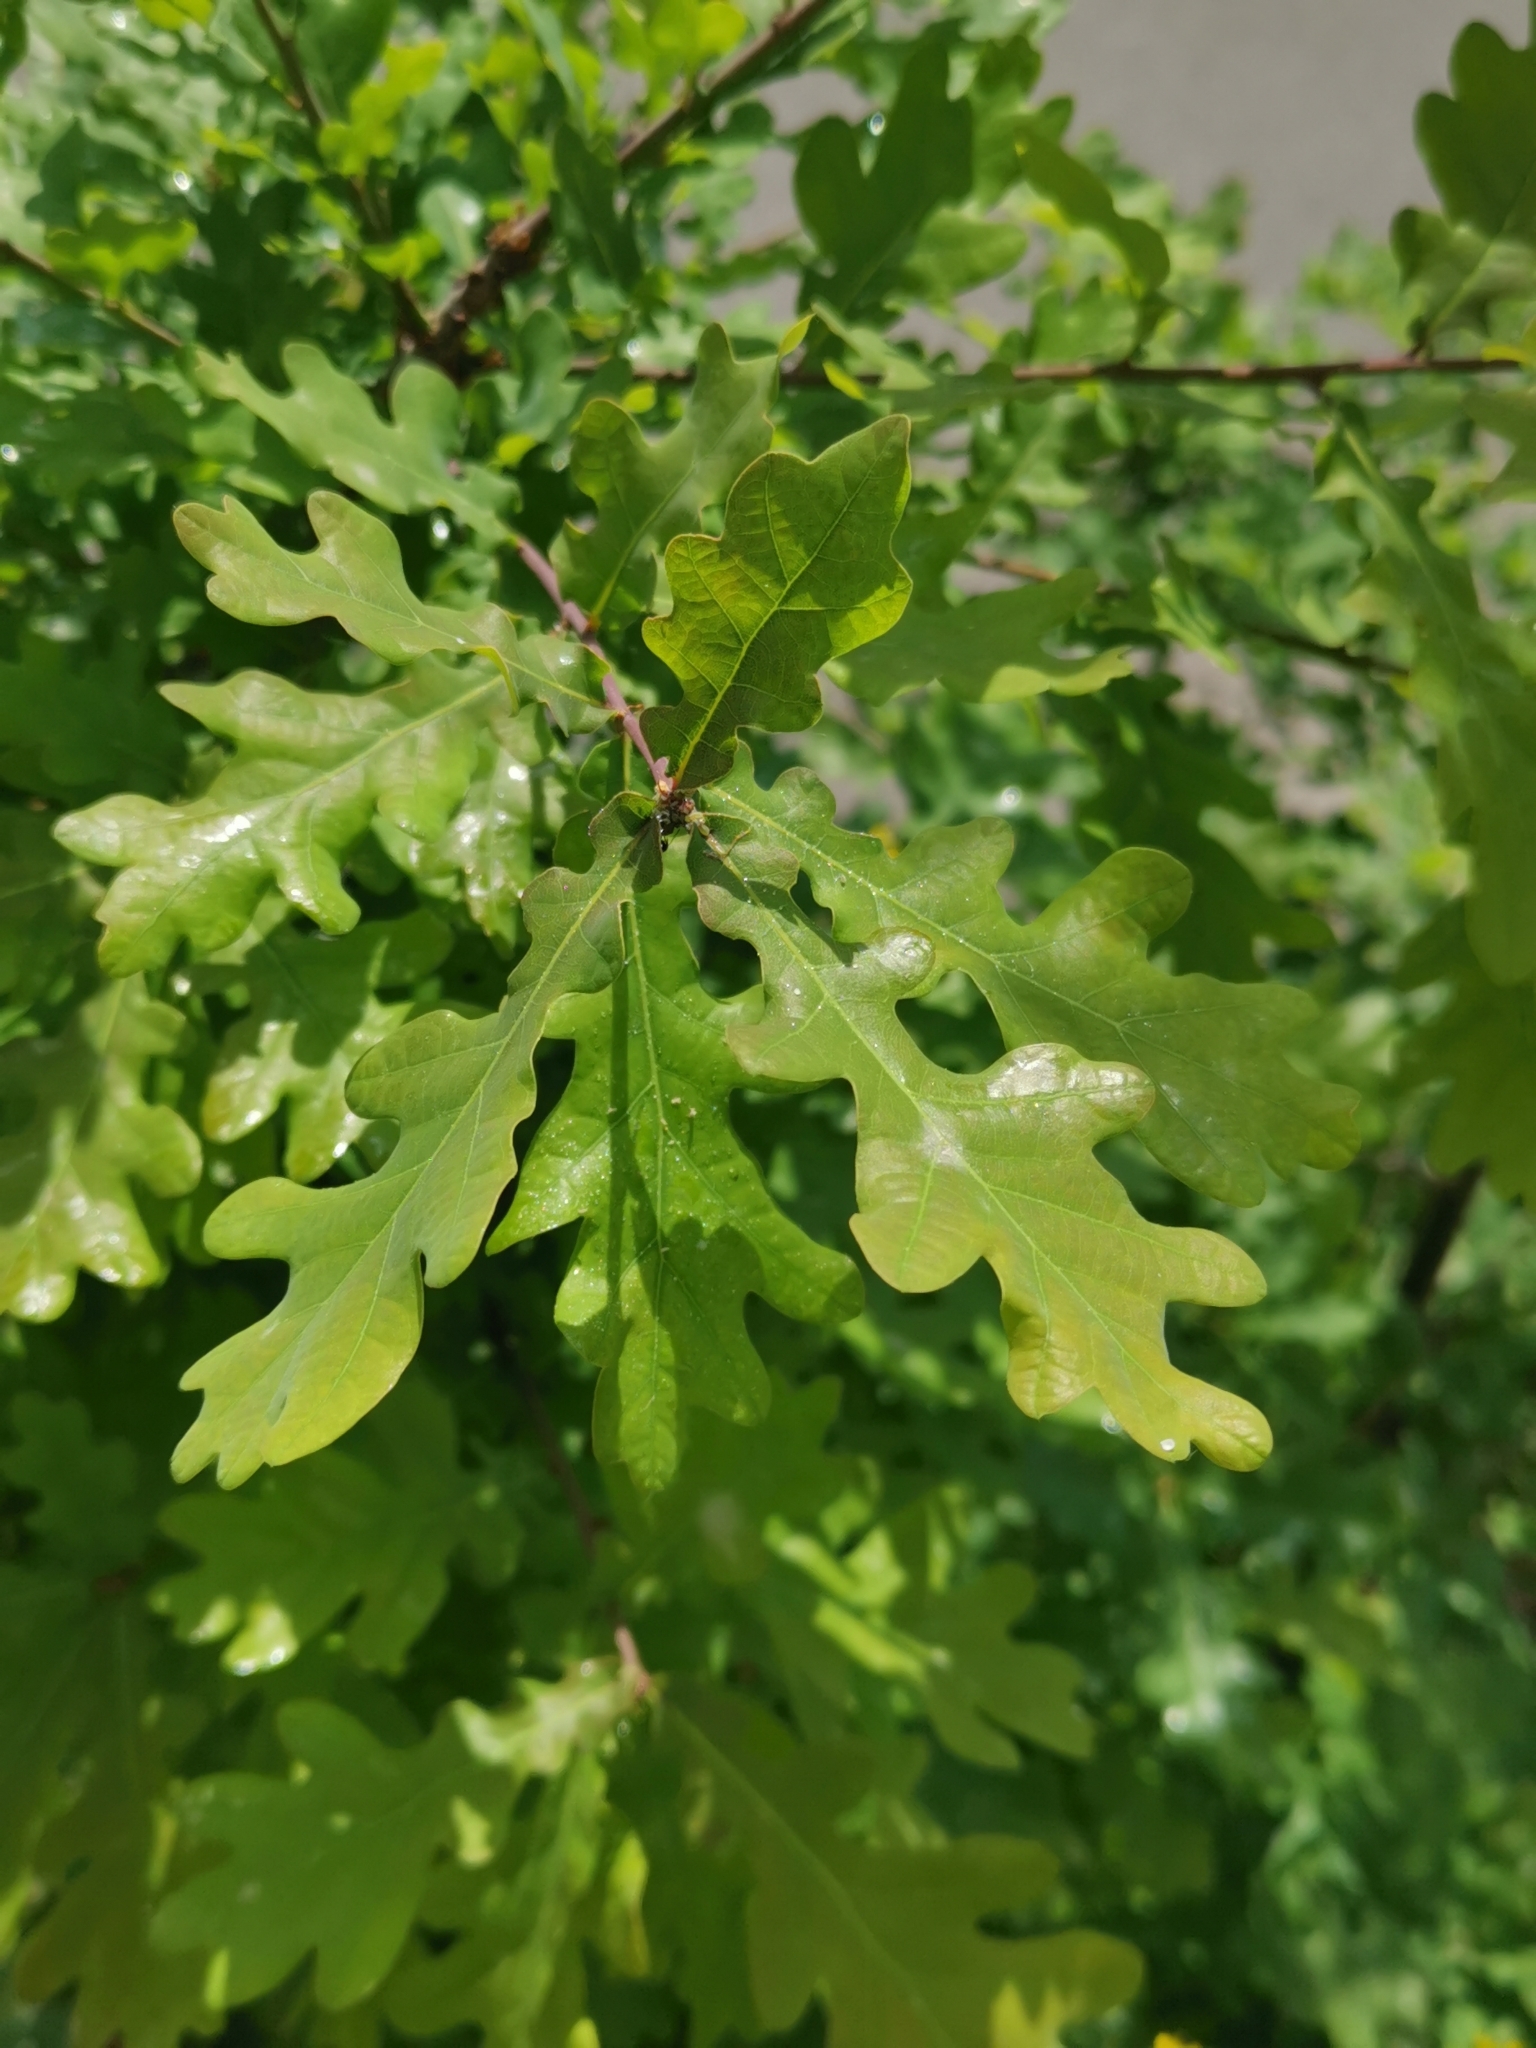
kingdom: Plantae
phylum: Tracheophyta
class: Magnoliopsida
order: Fagales
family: Fagaceae
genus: Quercus
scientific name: Quercus robur
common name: Pedunculate oak
